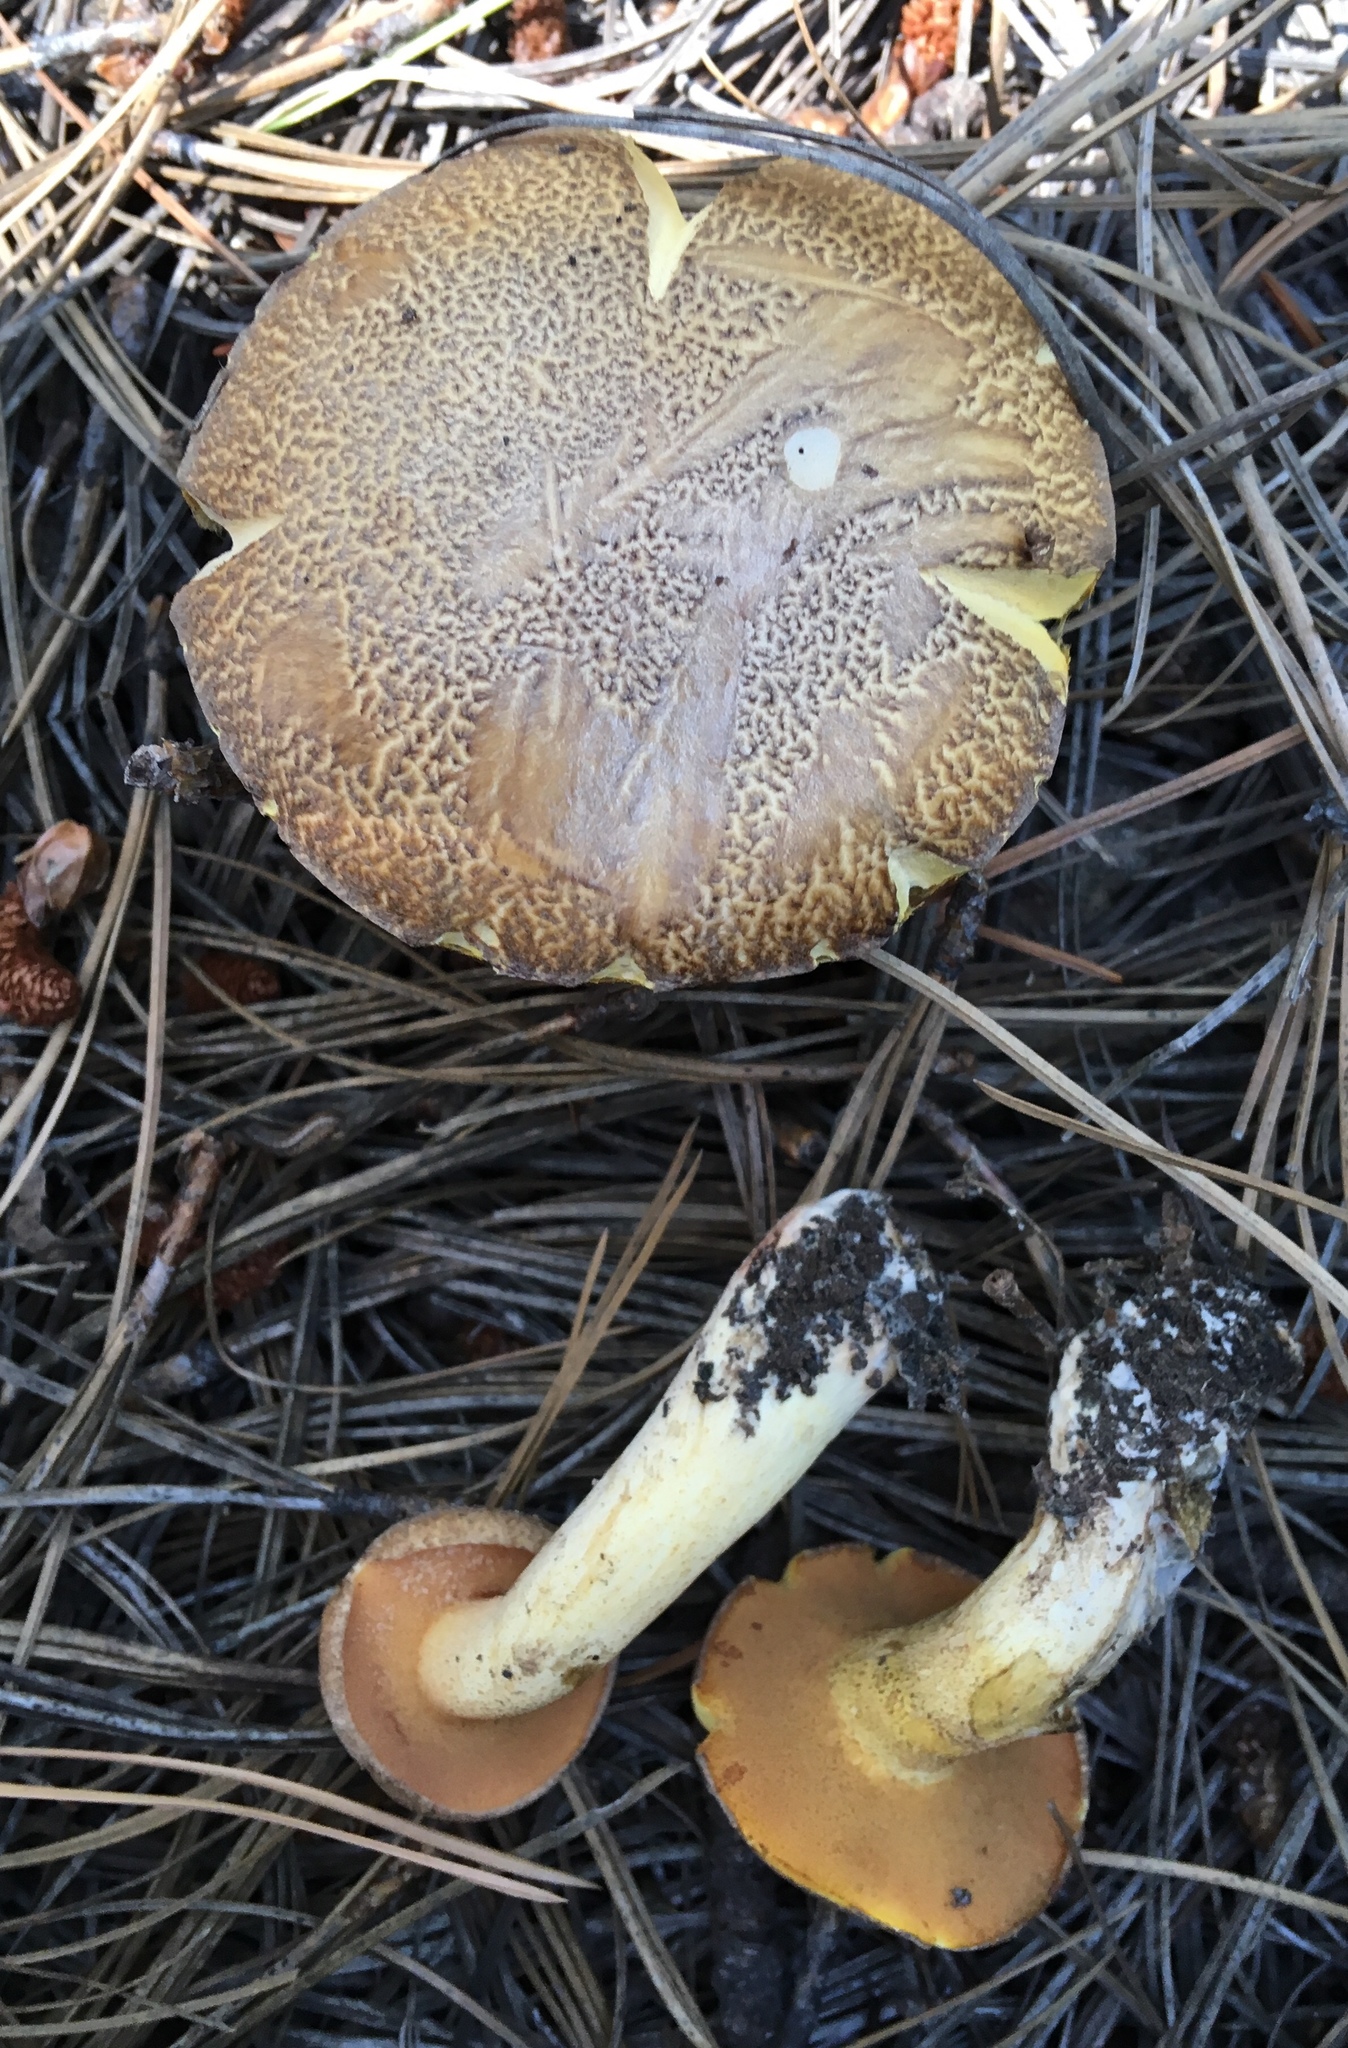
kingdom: Fungi
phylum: Basidiomycota
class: Agaricomycetes
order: Boletales
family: Suillaceae
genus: Suillus
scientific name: Suillus tomentosus
